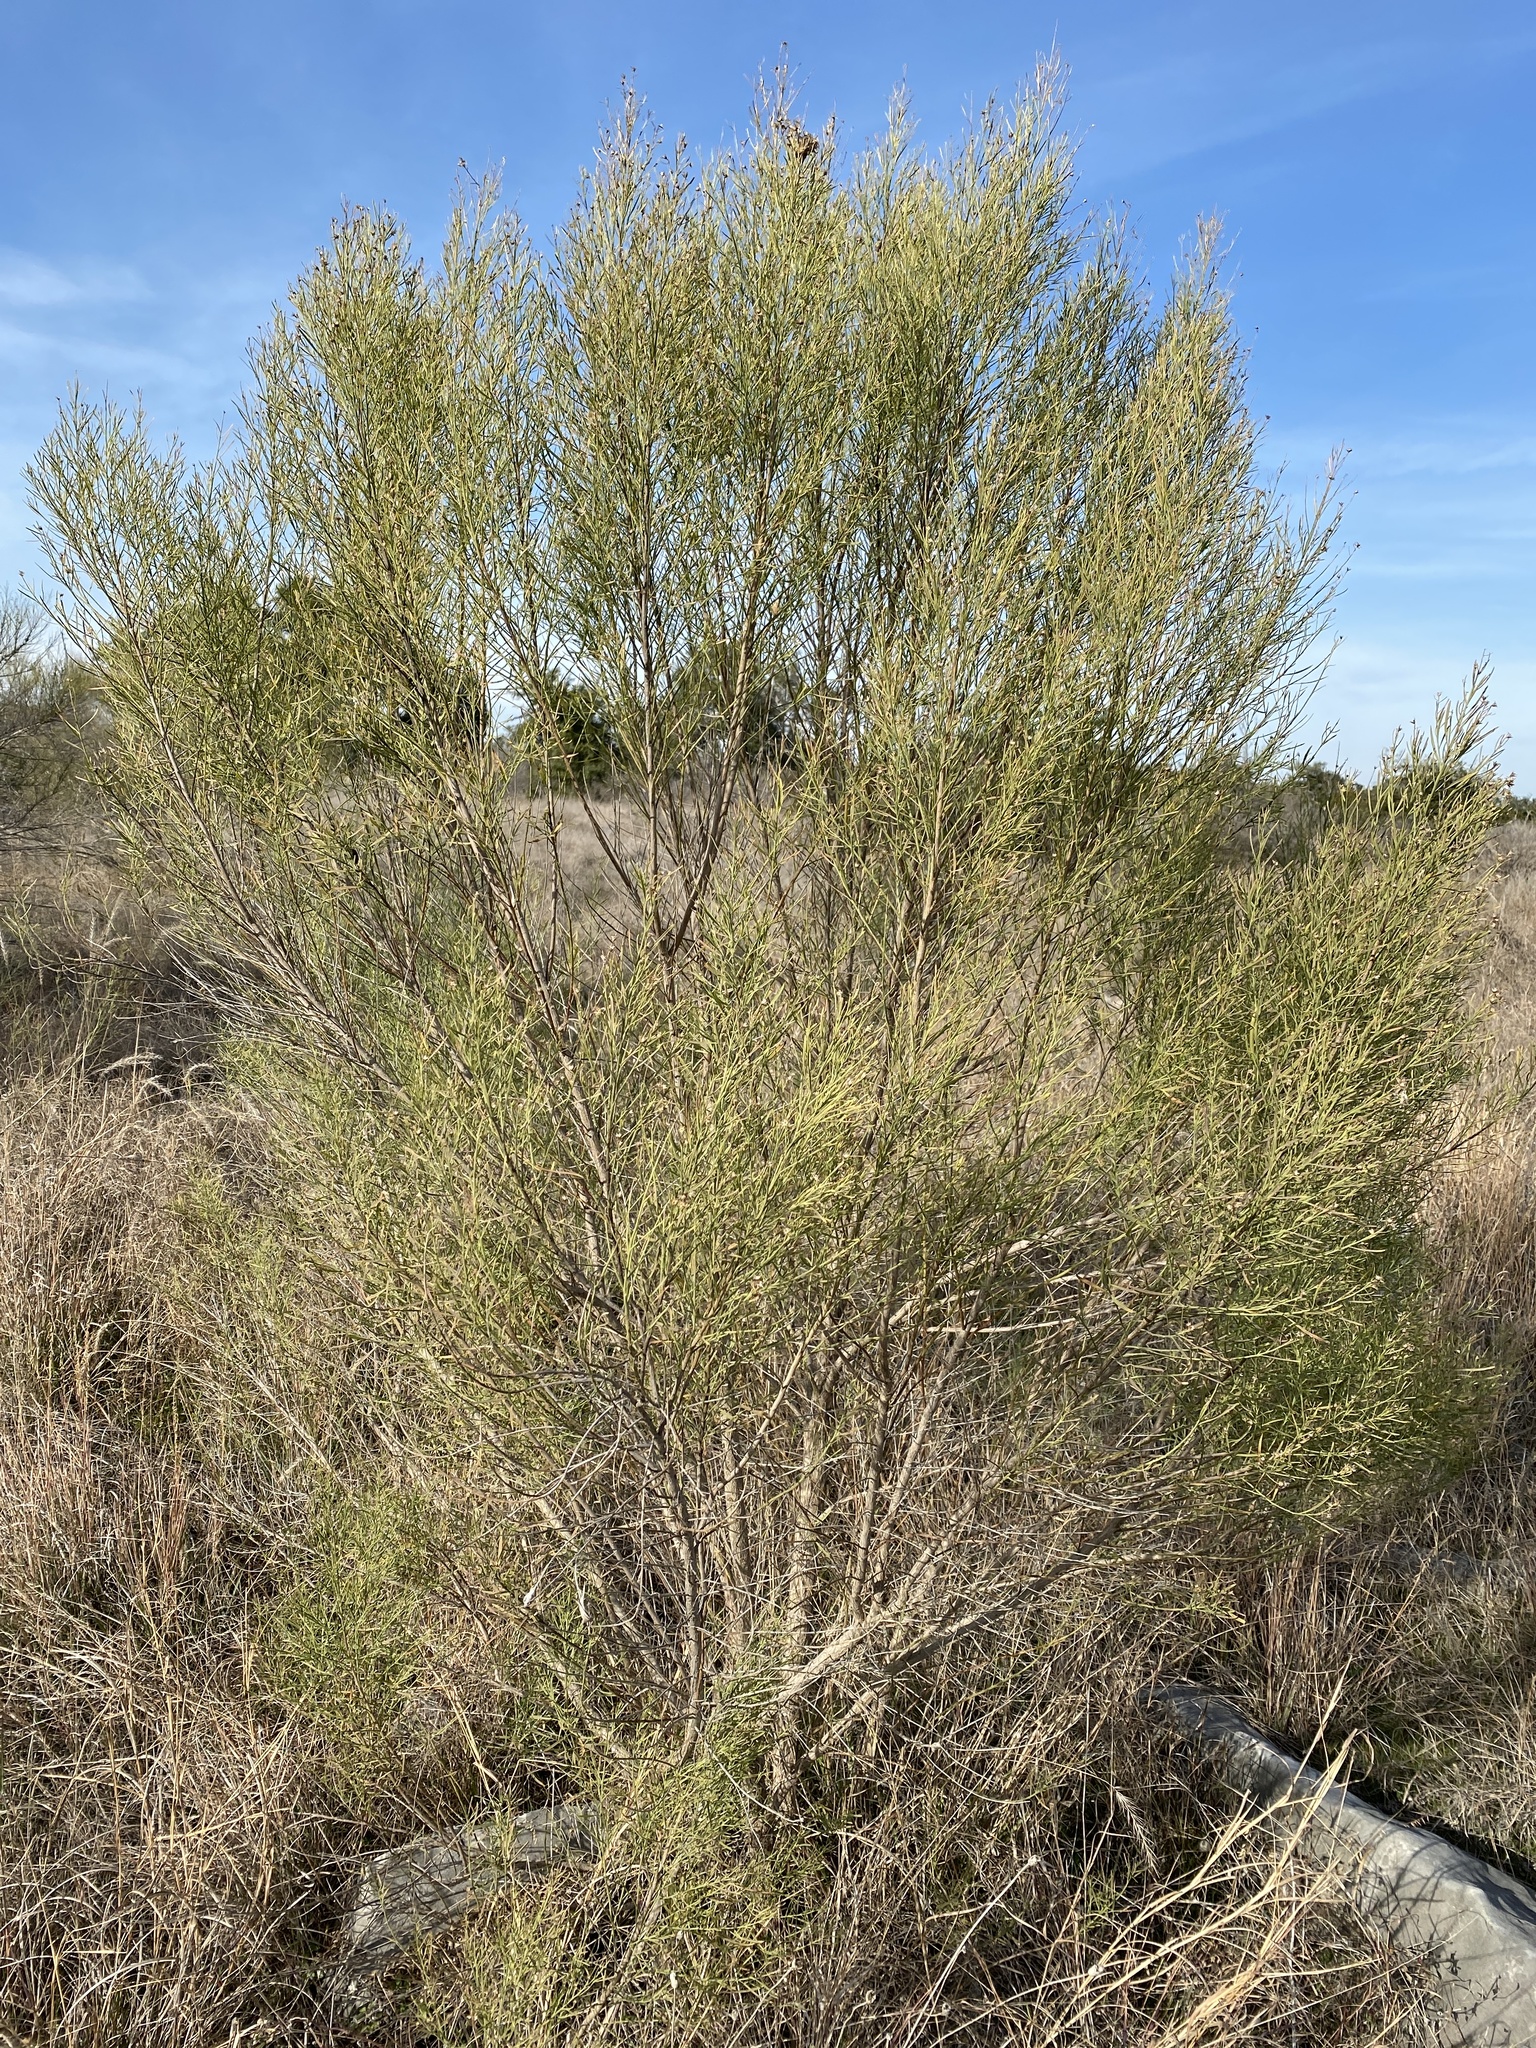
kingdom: Plantae
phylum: Tracheophyta
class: Magnoliopsida
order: Asterales
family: Asteraceae
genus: Baccharis
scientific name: Baccharis neglecta
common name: Roosevelt-weed
